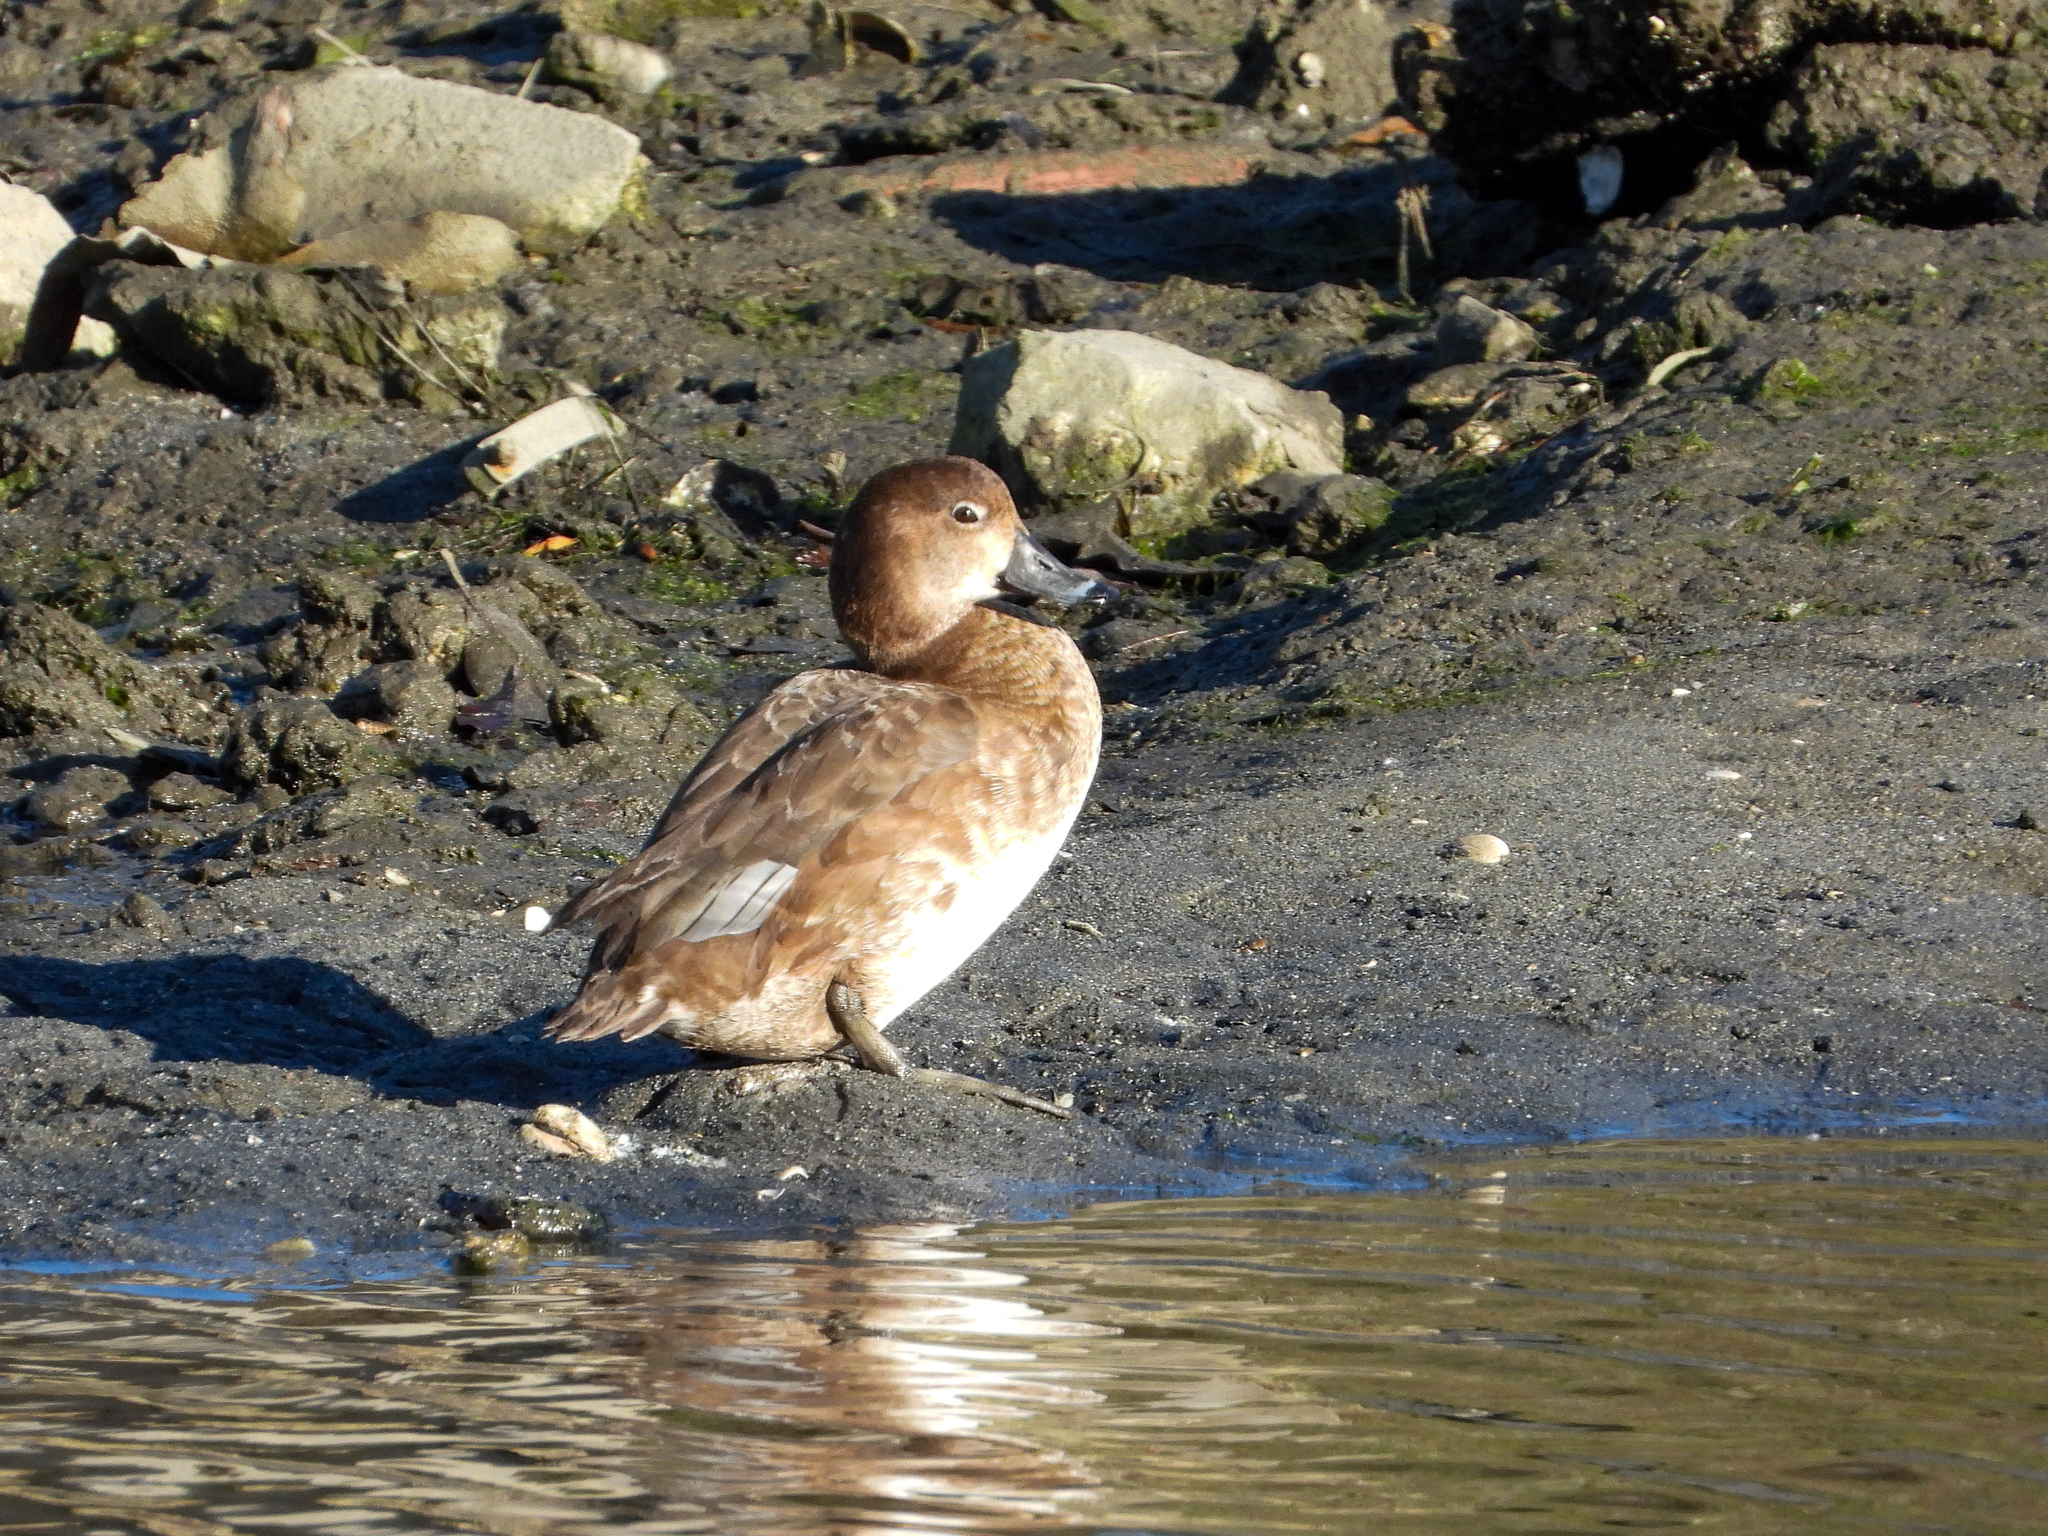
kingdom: Animalia
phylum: Chordata
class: Aves
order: Anseriformes
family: Anatidae
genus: Aythya
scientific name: Aythya americana
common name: Redhead
